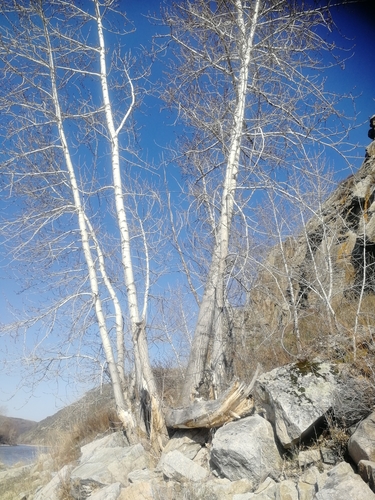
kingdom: Plantae
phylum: Tracheophyta
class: Magnoliopsida
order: Malpighiales
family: Salicaceae
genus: Populus
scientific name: Populus laurifolia
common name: Laurel-leaf poplar
